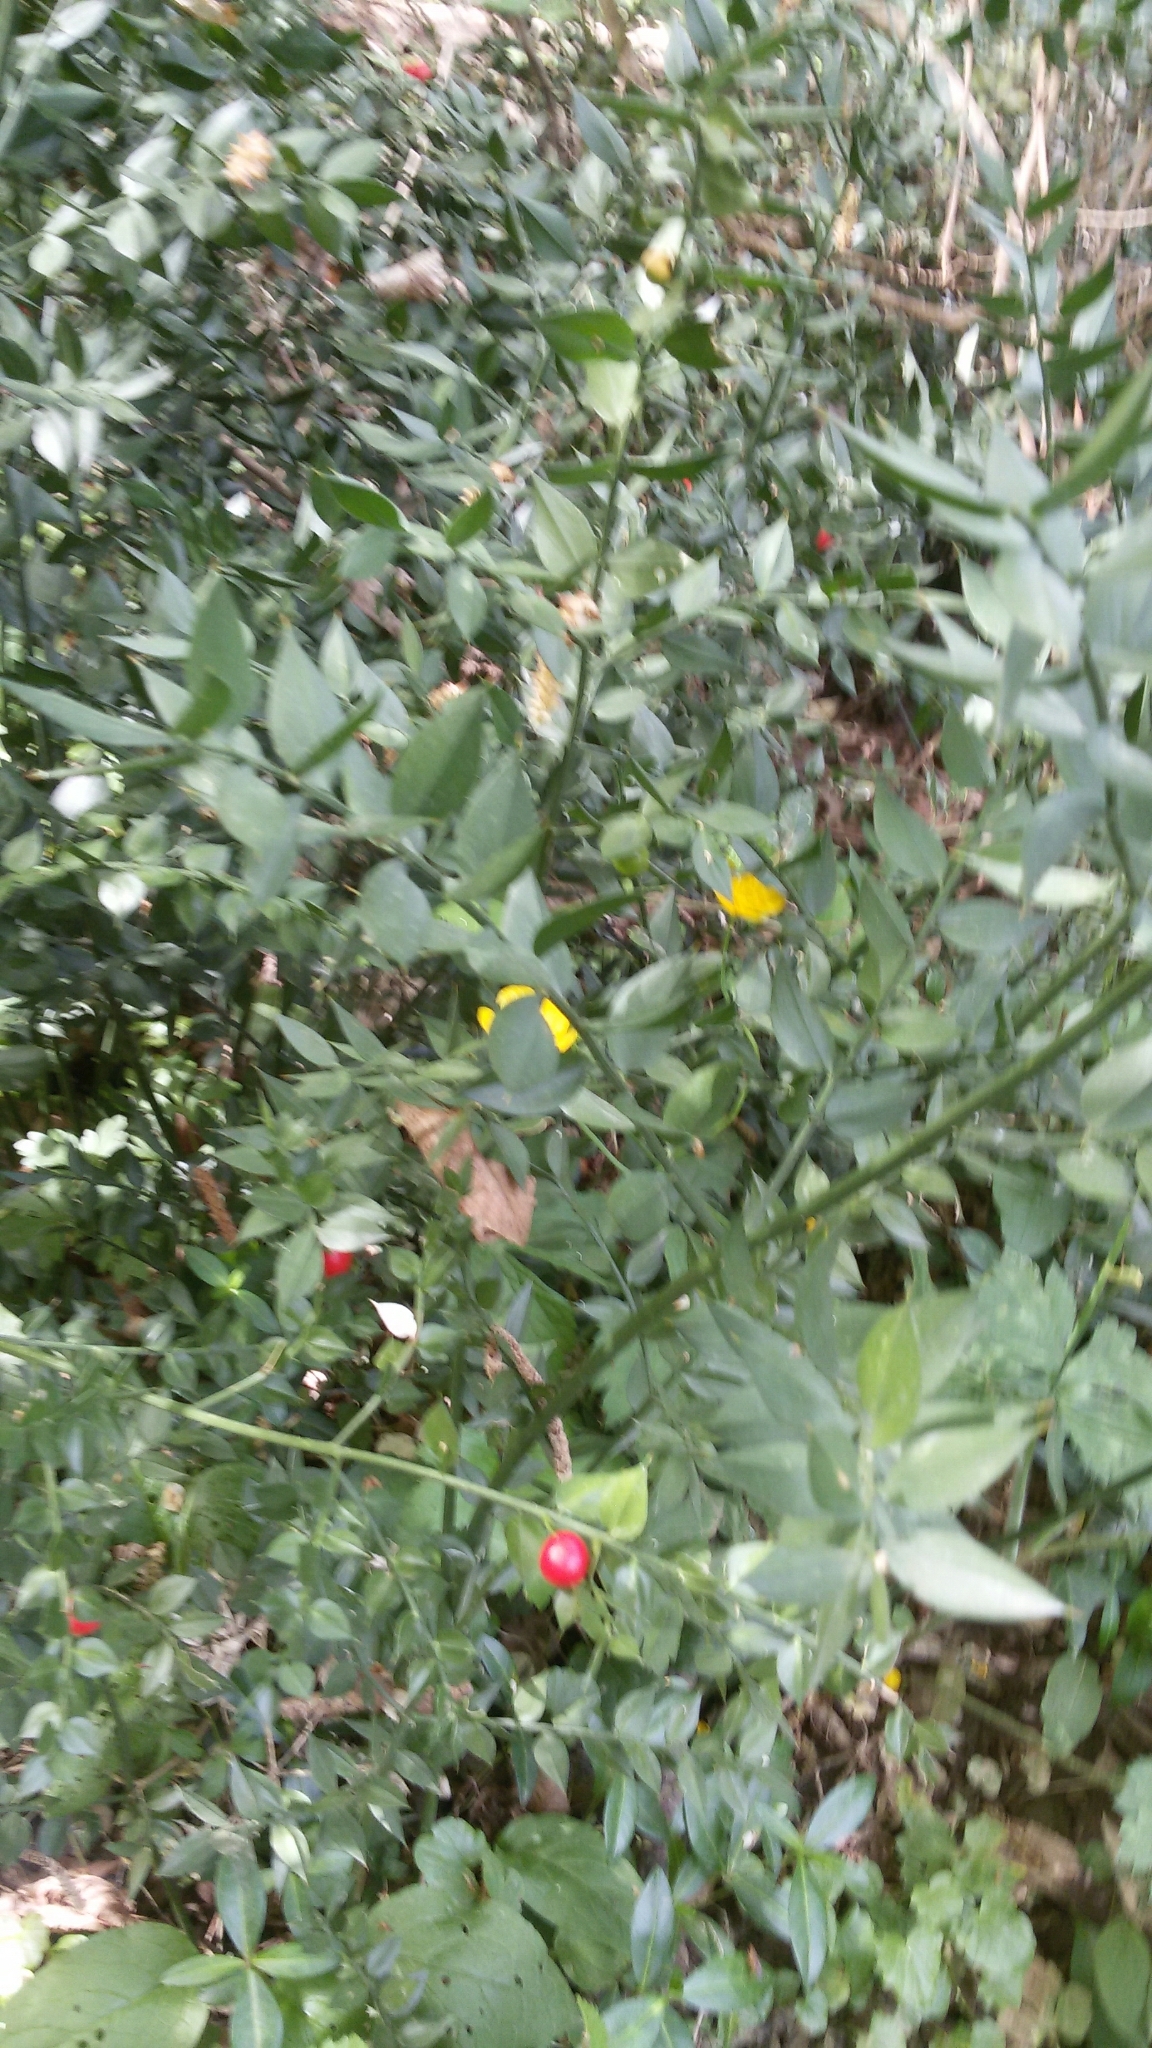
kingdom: Plantae
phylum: Tracheophyta
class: Liliopsida
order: Asparagales
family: Asparagaceae
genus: Ruscus
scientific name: Ruscus aculeatus
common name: Butcher's-broom
